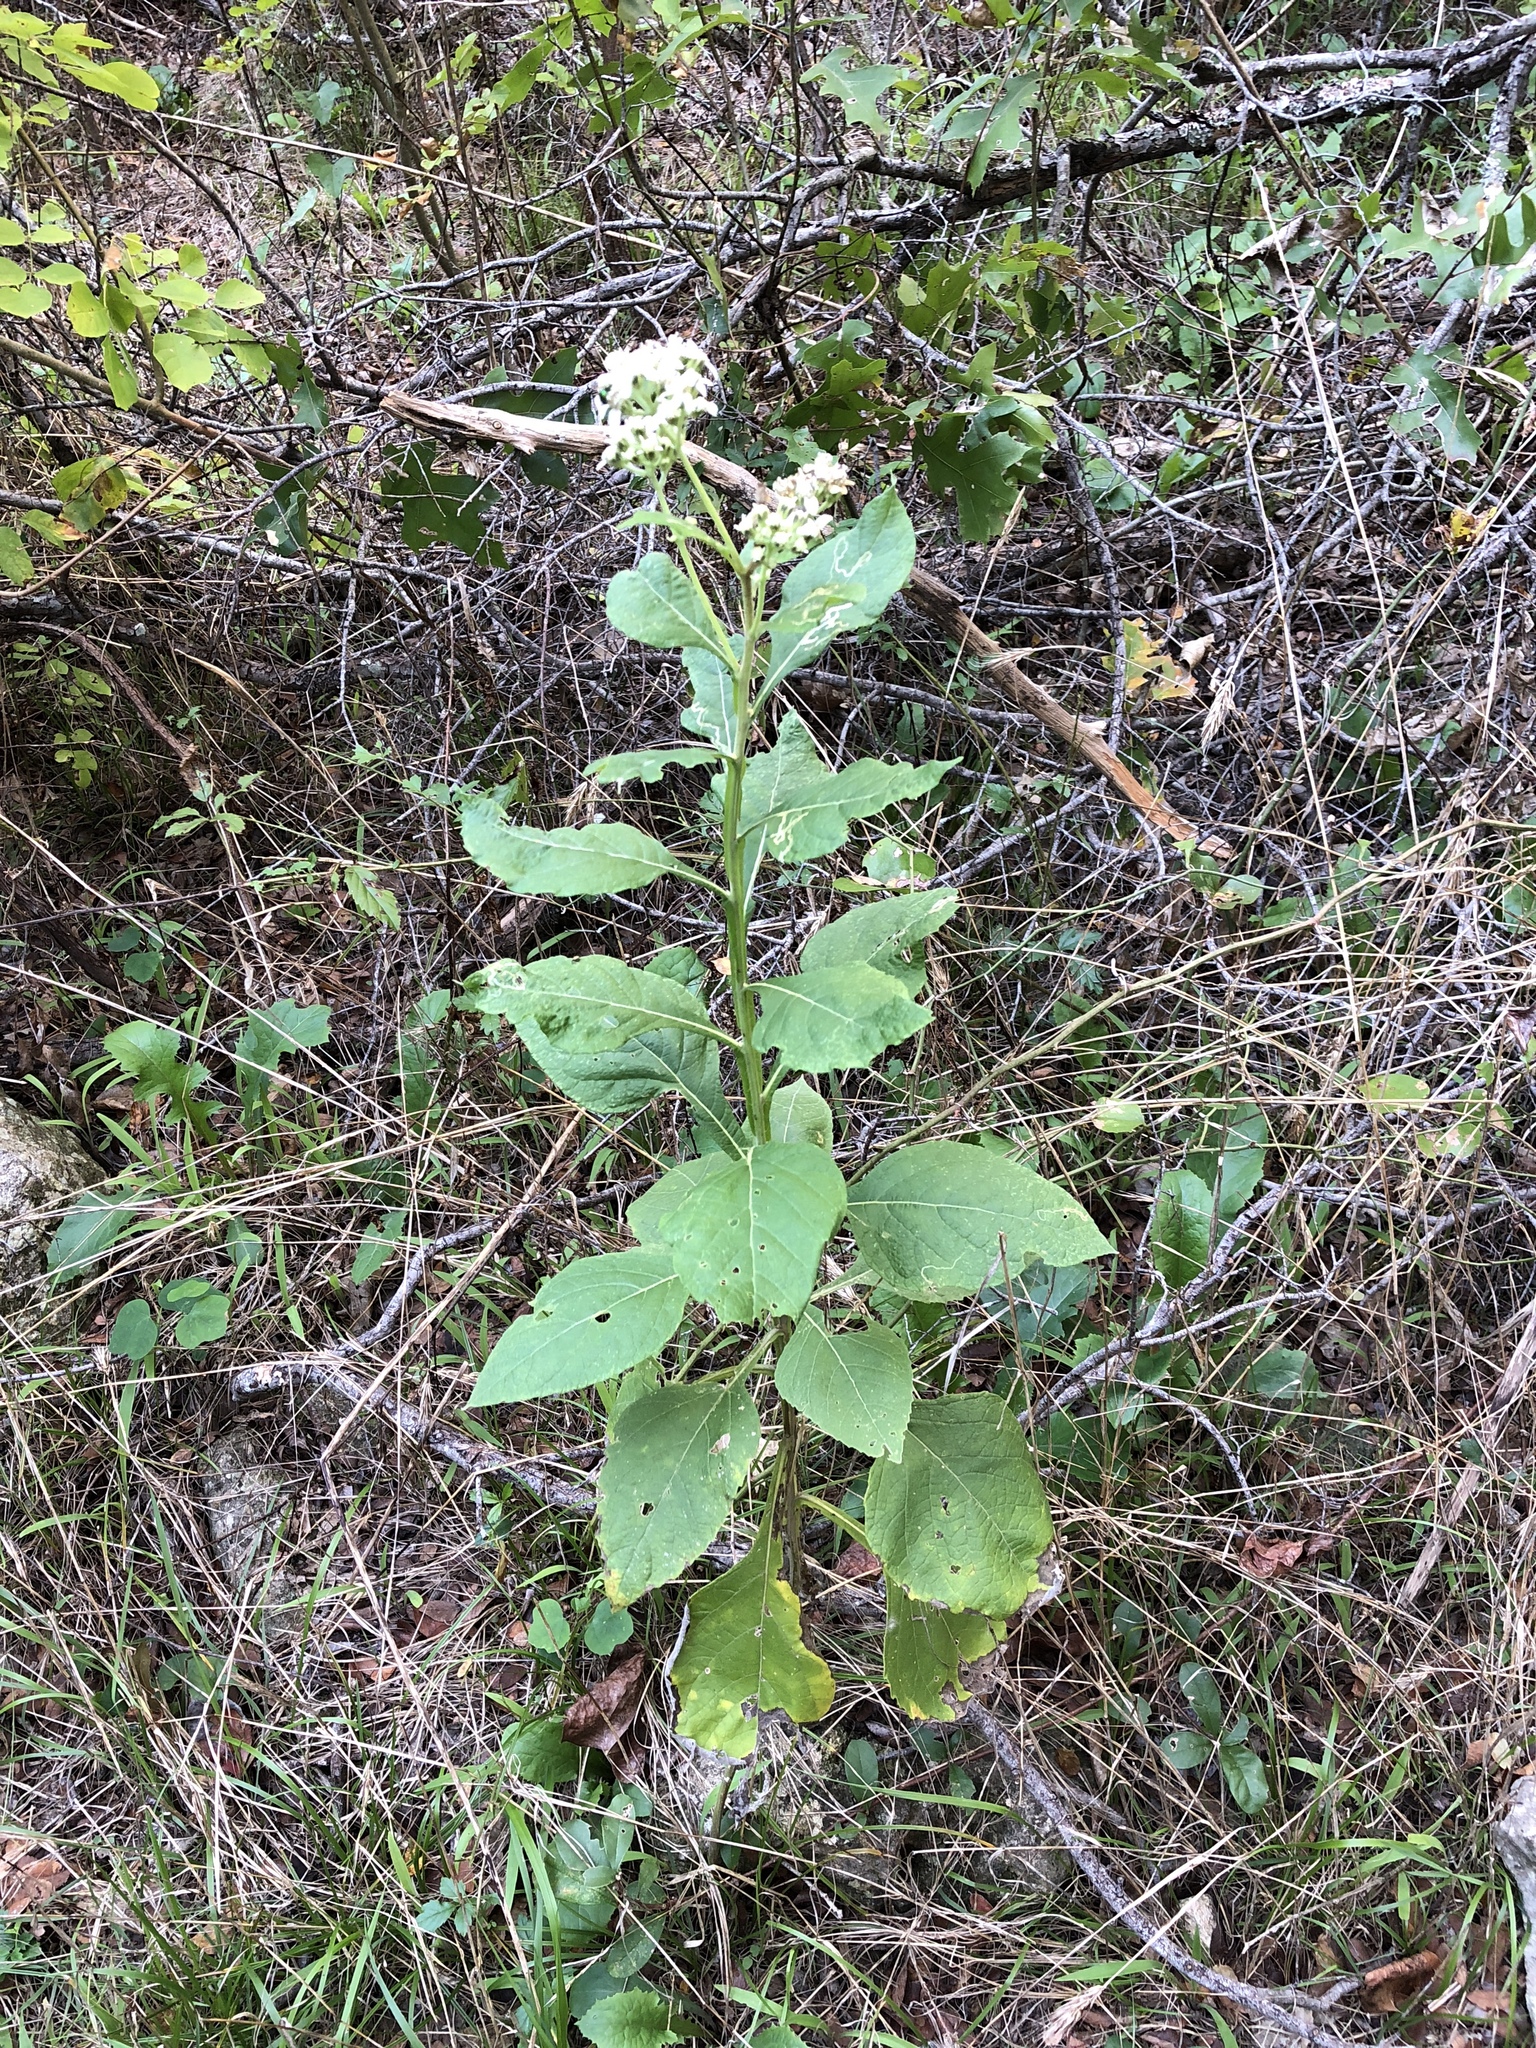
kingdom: Plantae
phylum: Tracheophyta
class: Magnoliopsida
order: Asterales
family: Asteraceae
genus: Verbesina
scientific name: Verbesina virginica
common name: Frostweed
